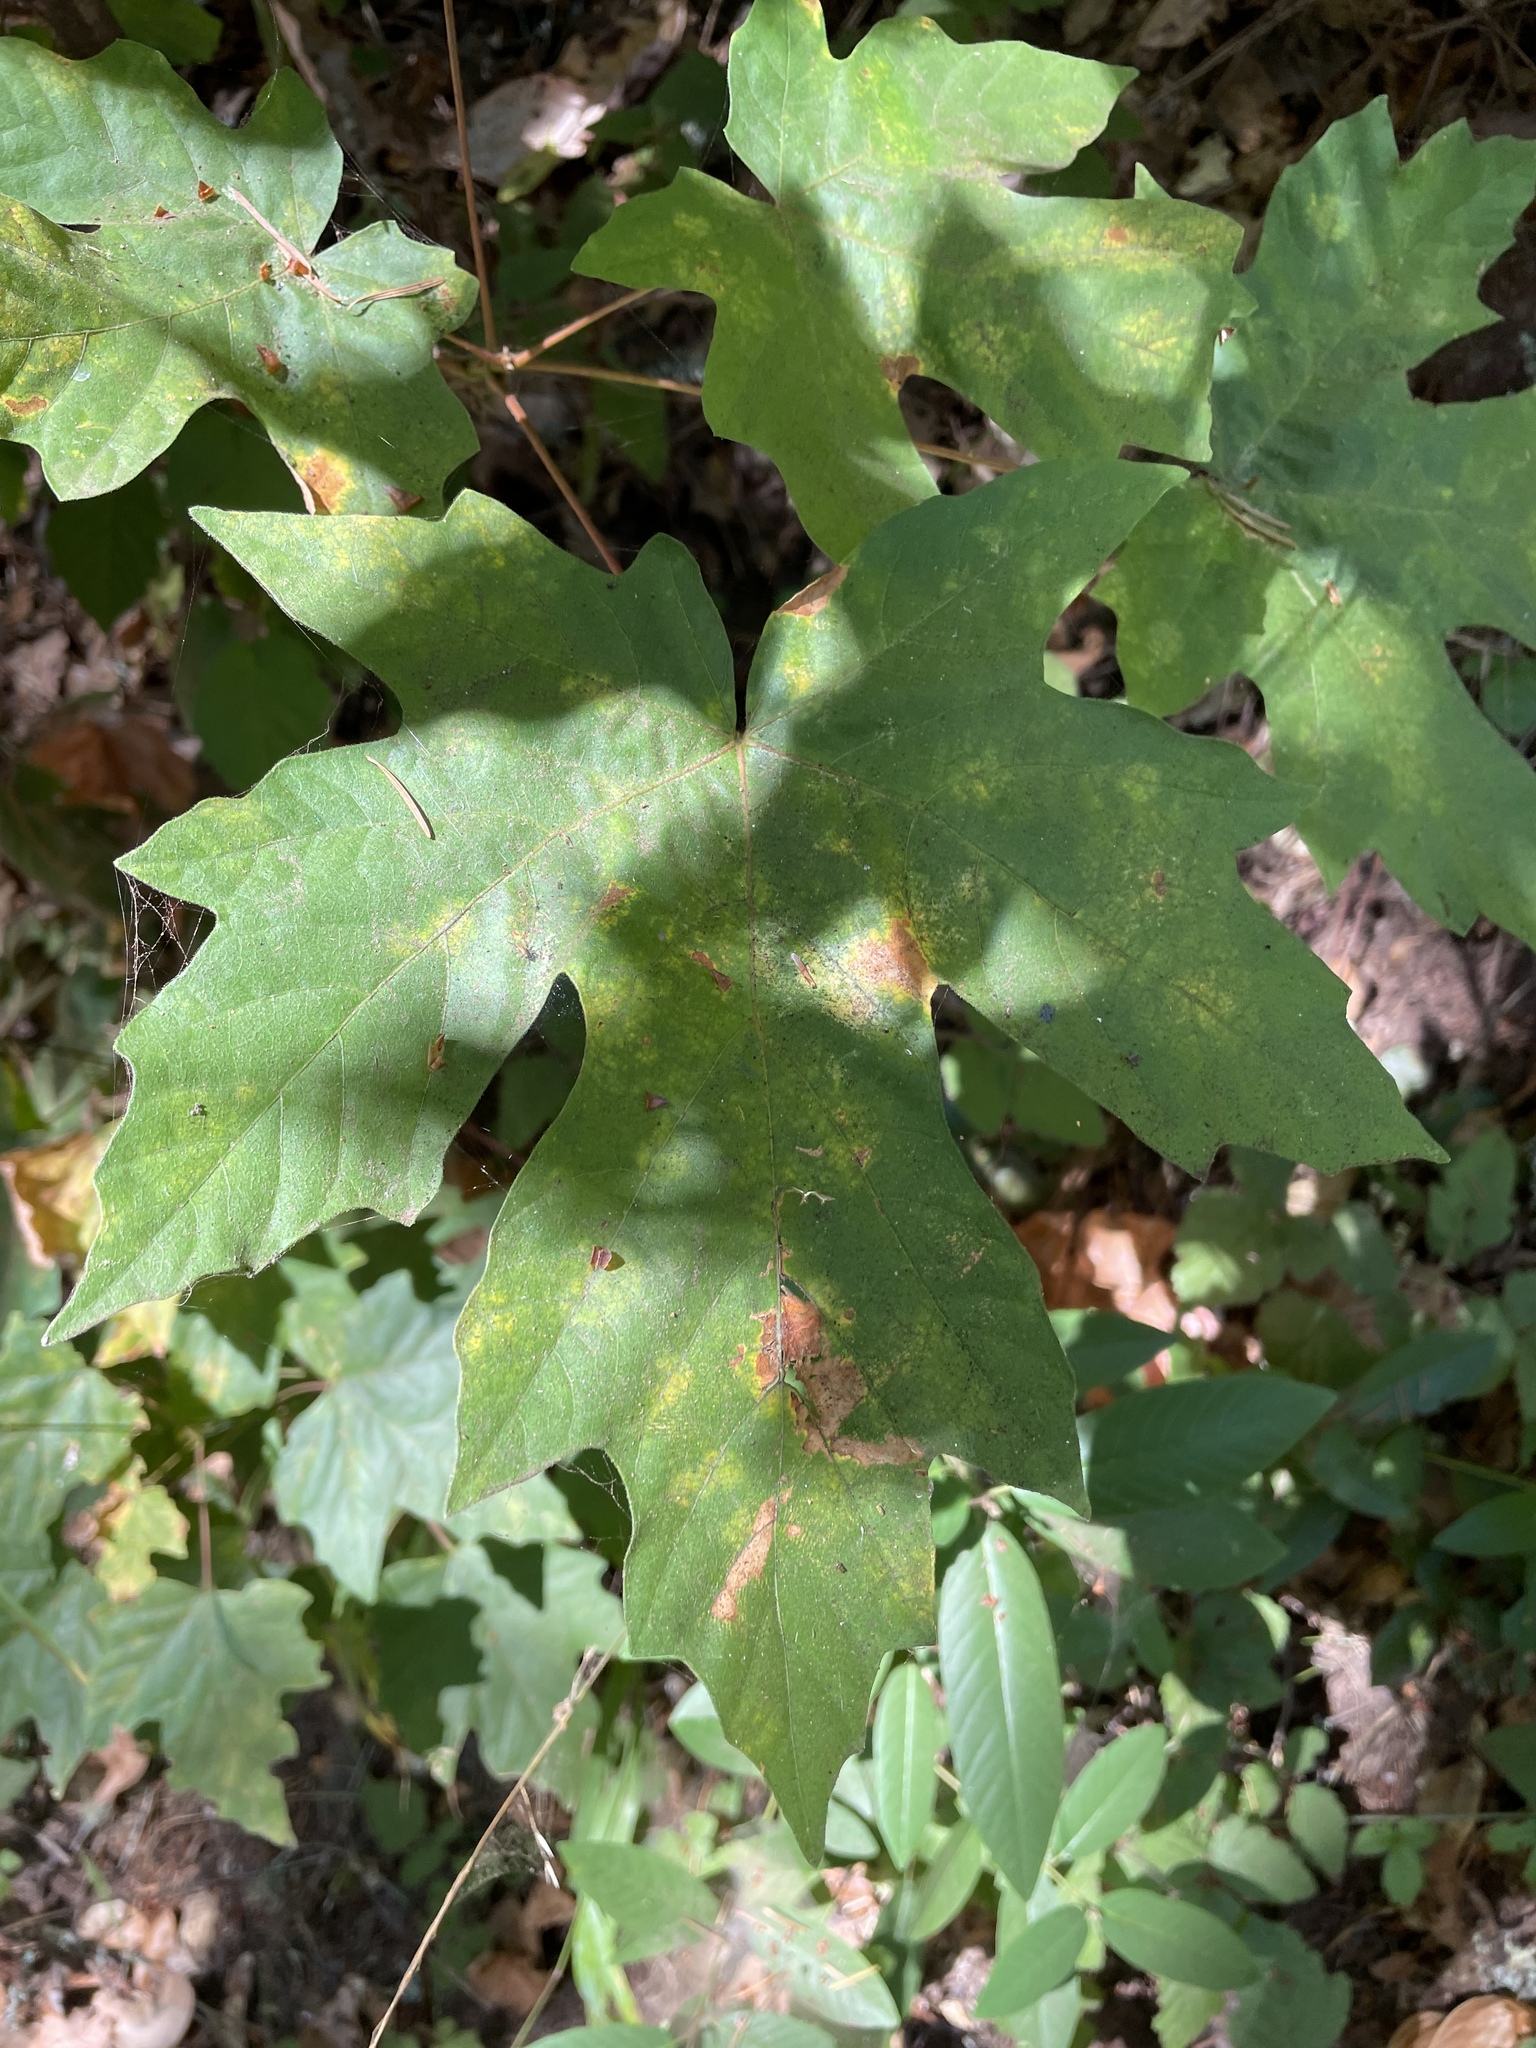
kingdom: Plantae
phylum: Tracheophyta
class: Magnoliopsida
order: Sapindales
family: Sapindaceae
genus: Acer
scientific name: Acer macrophyllum
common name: Oregon maple
